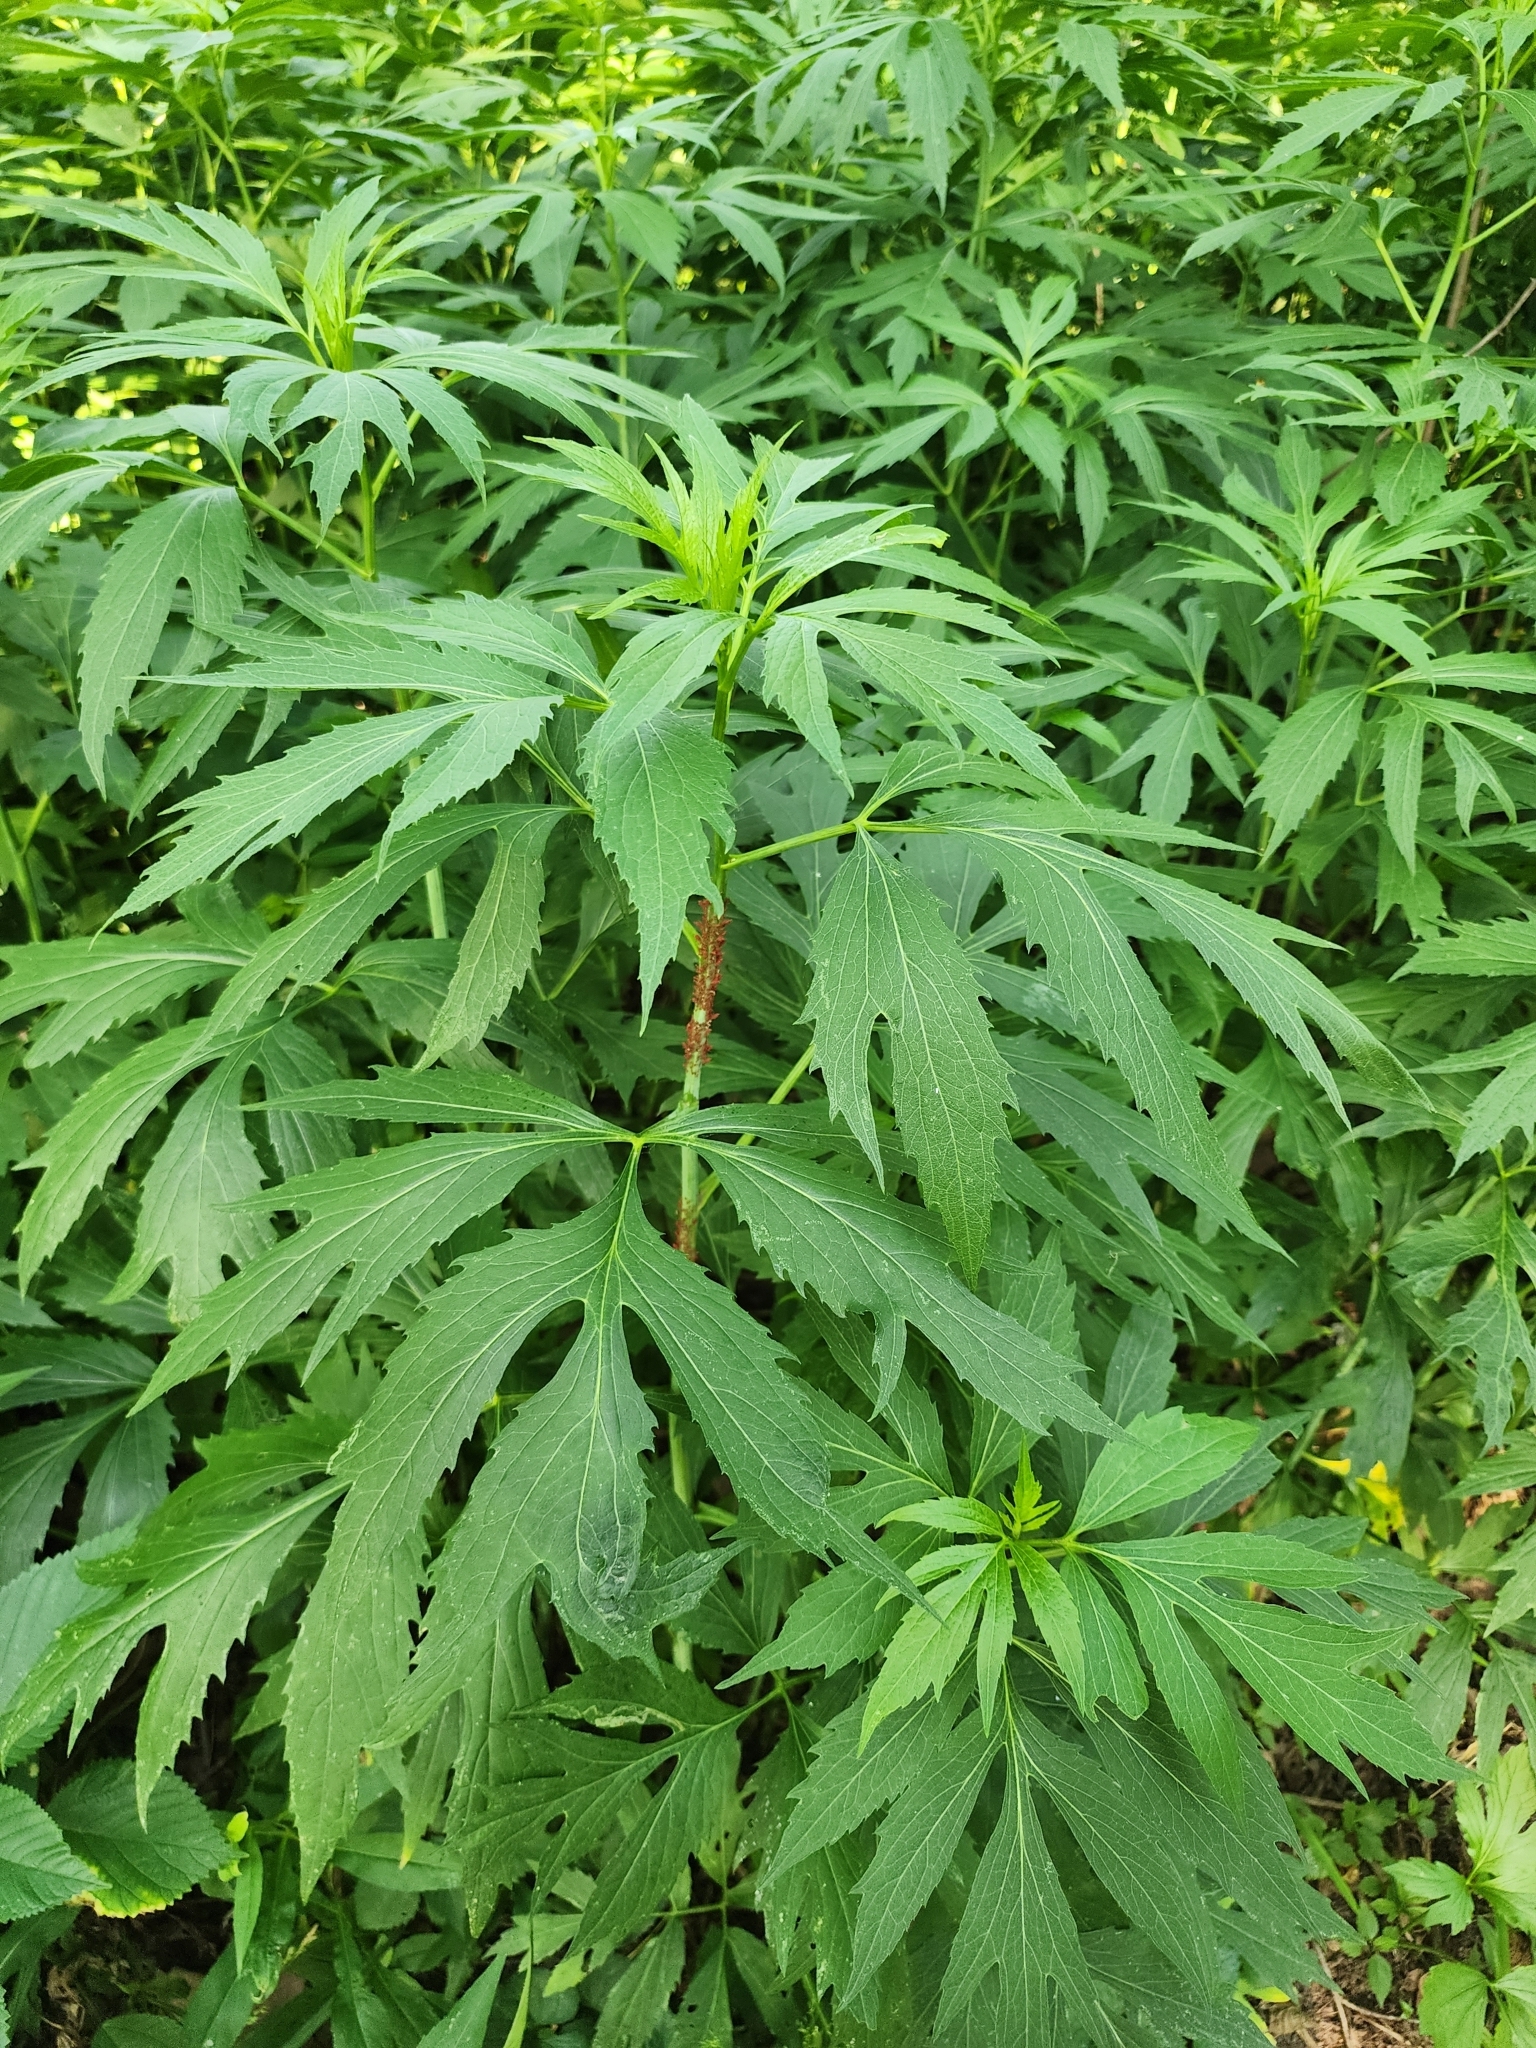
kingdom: Plantae
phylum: Tracheophyta
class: Magnoliopsida
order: Asterales
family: Asteraceae
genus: Rudbeckia
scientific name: Rudbeckia laciniata
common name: Coneflower
